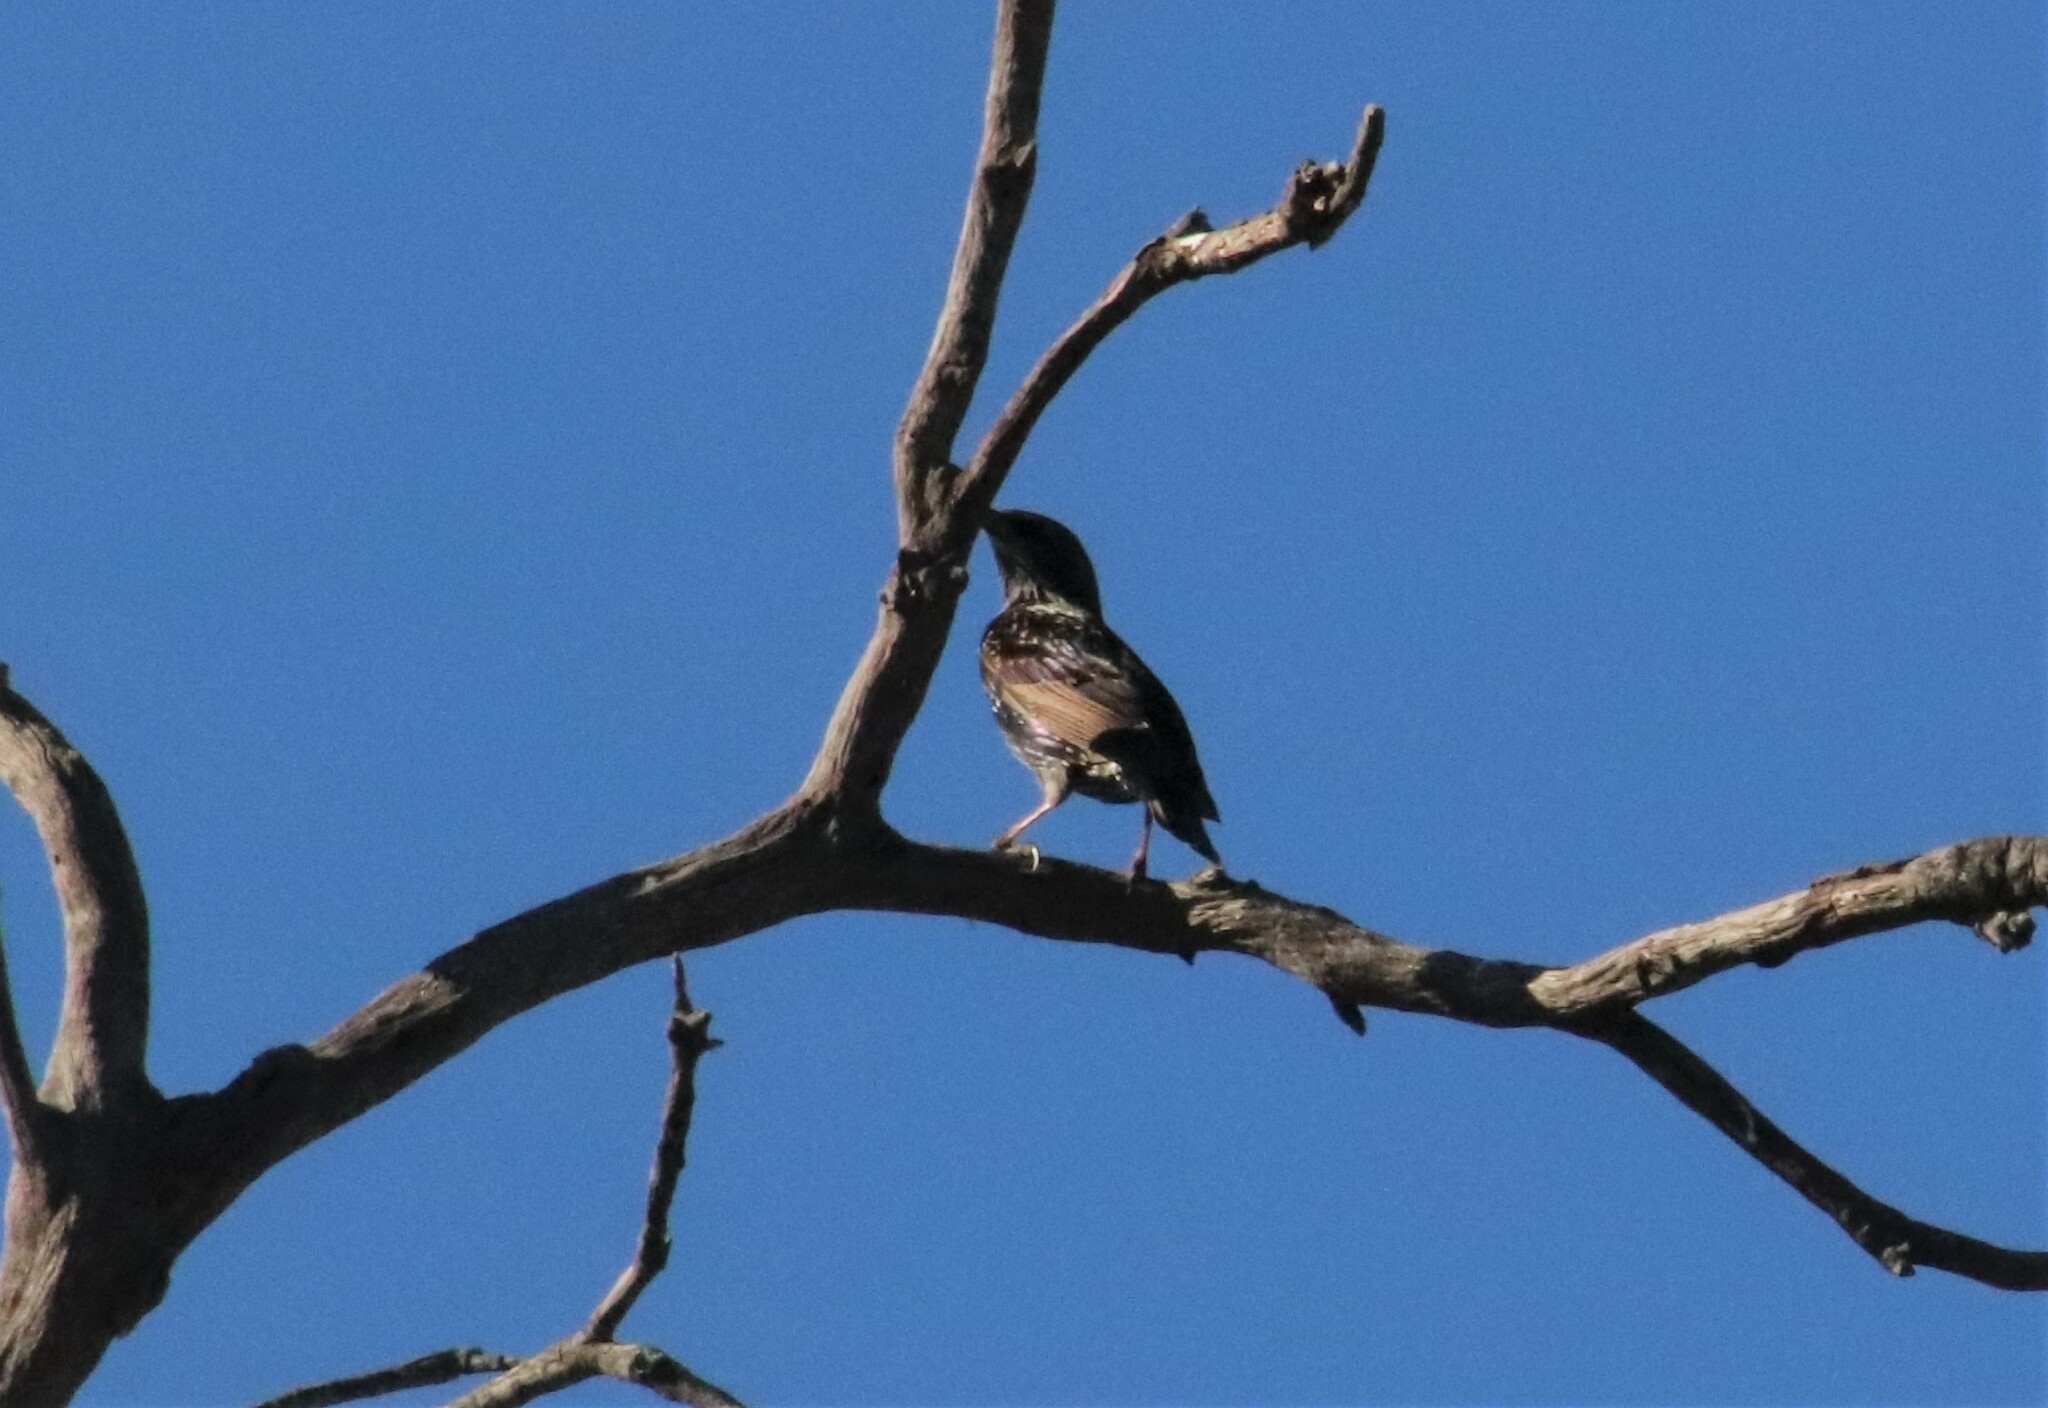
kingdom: Animalia
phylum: Chordata
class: Aves
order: Passeriformes
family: Sturnidae
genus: Sturnus
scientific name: Sturnus vulgaris
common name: Common starling
